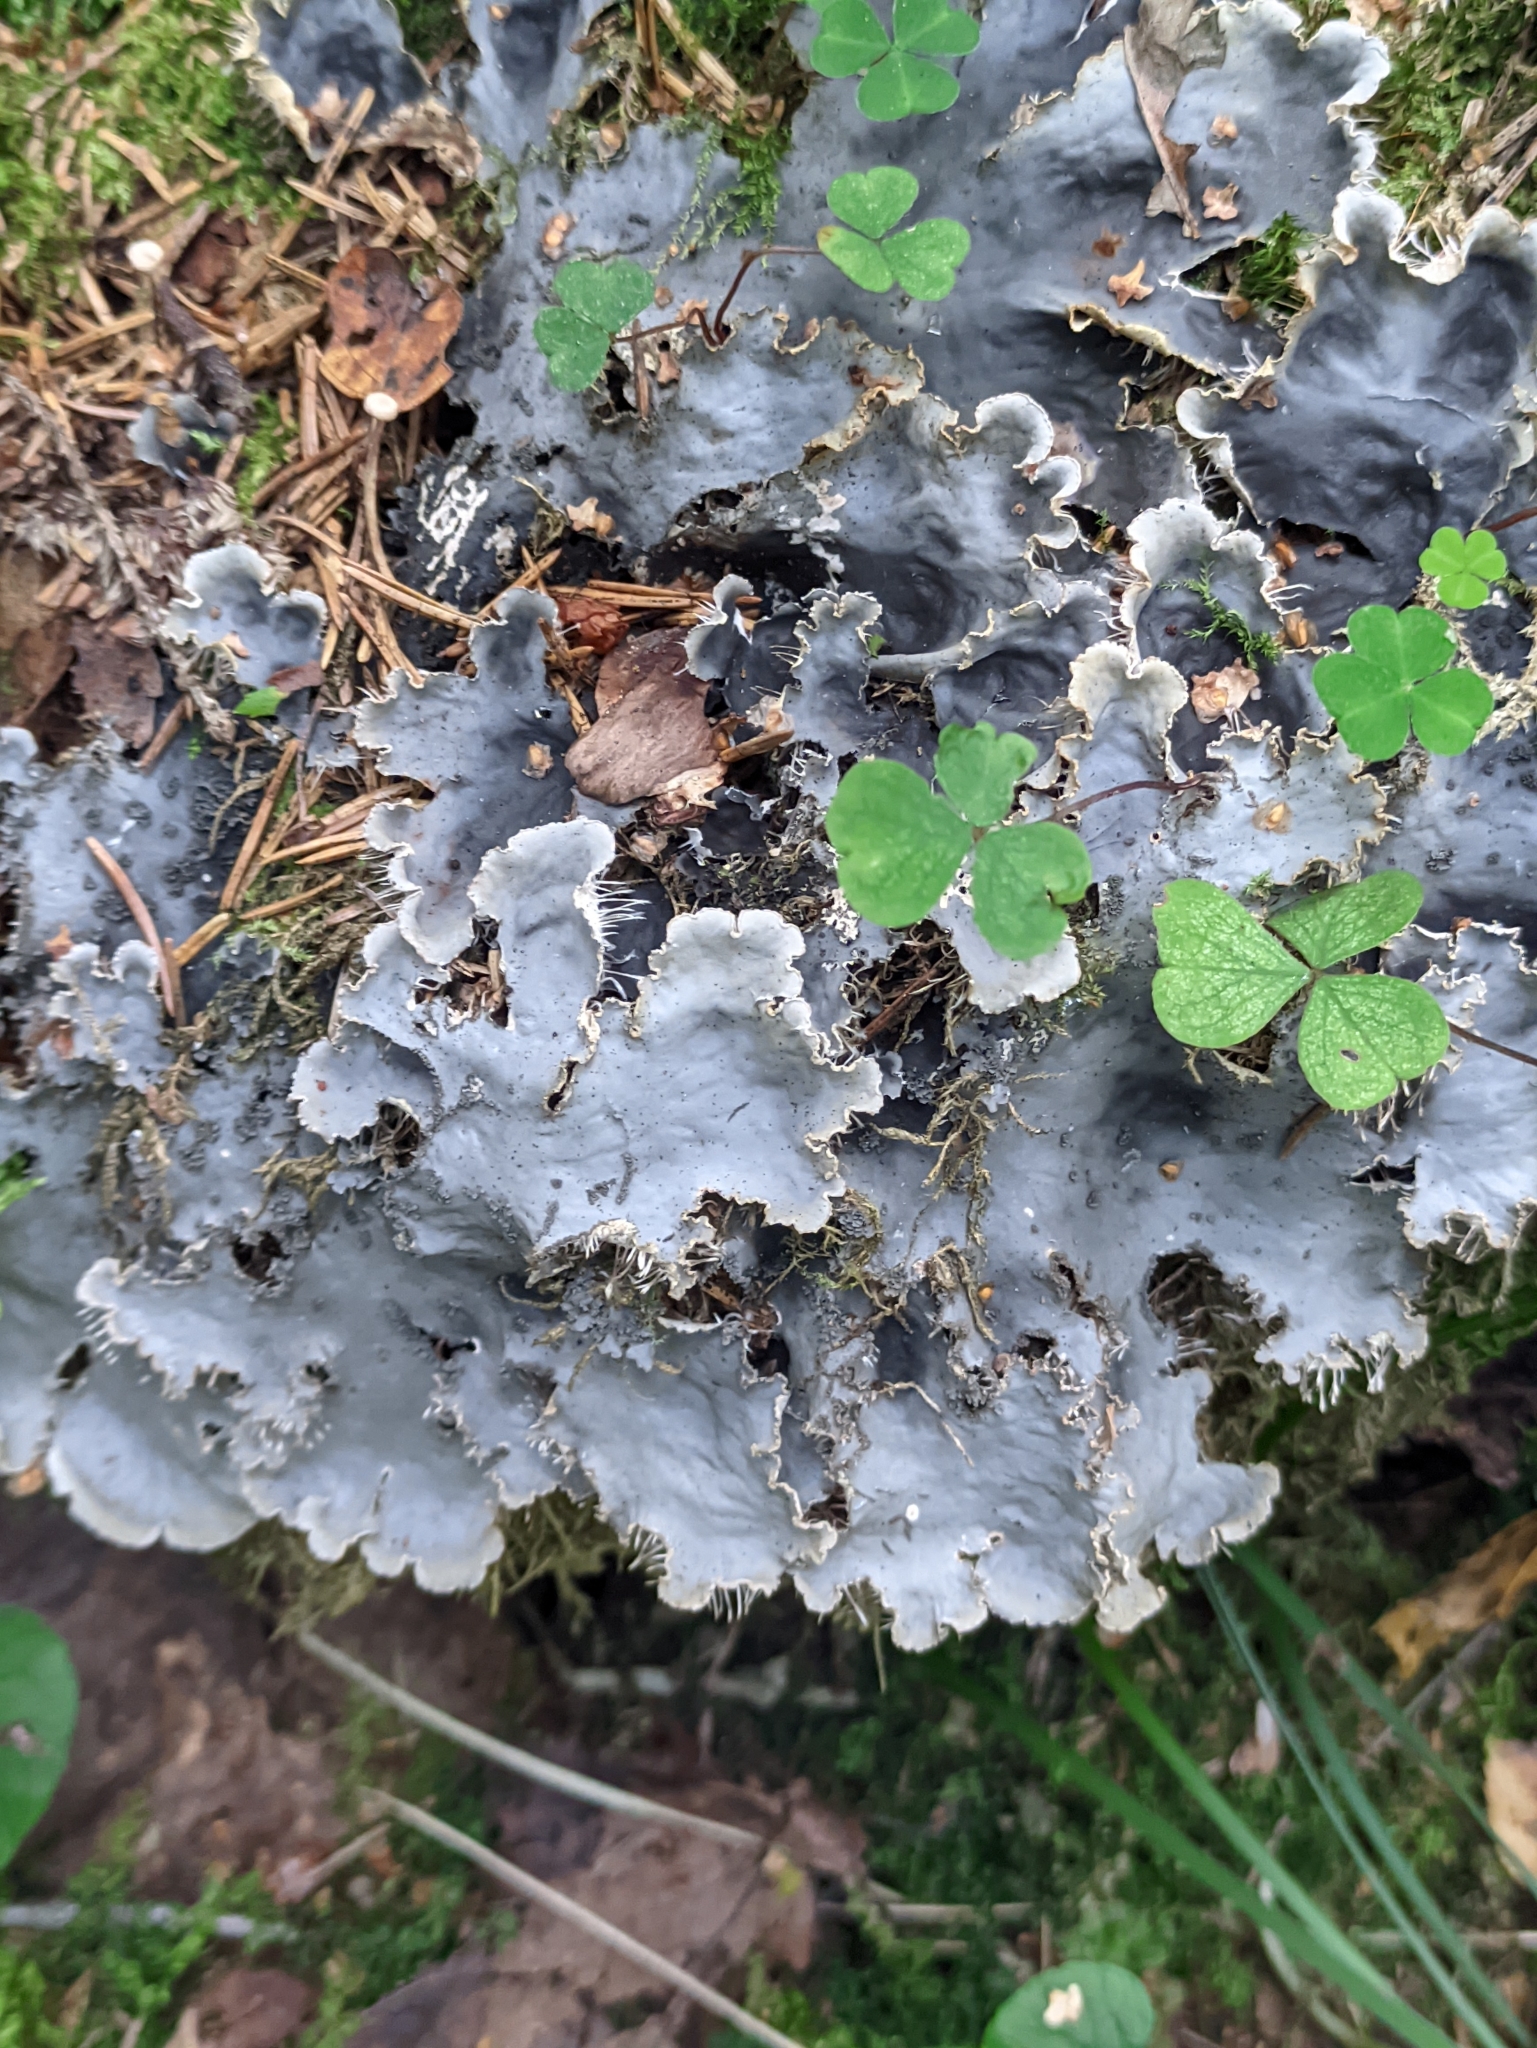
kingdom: Fungi
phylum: Ascomycota
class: Lecanoromycetes
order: Peltigerales
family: Peltigeraceae
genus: Peltigera
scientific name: Peltigera praetextata
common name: Scaly dog-lichen
